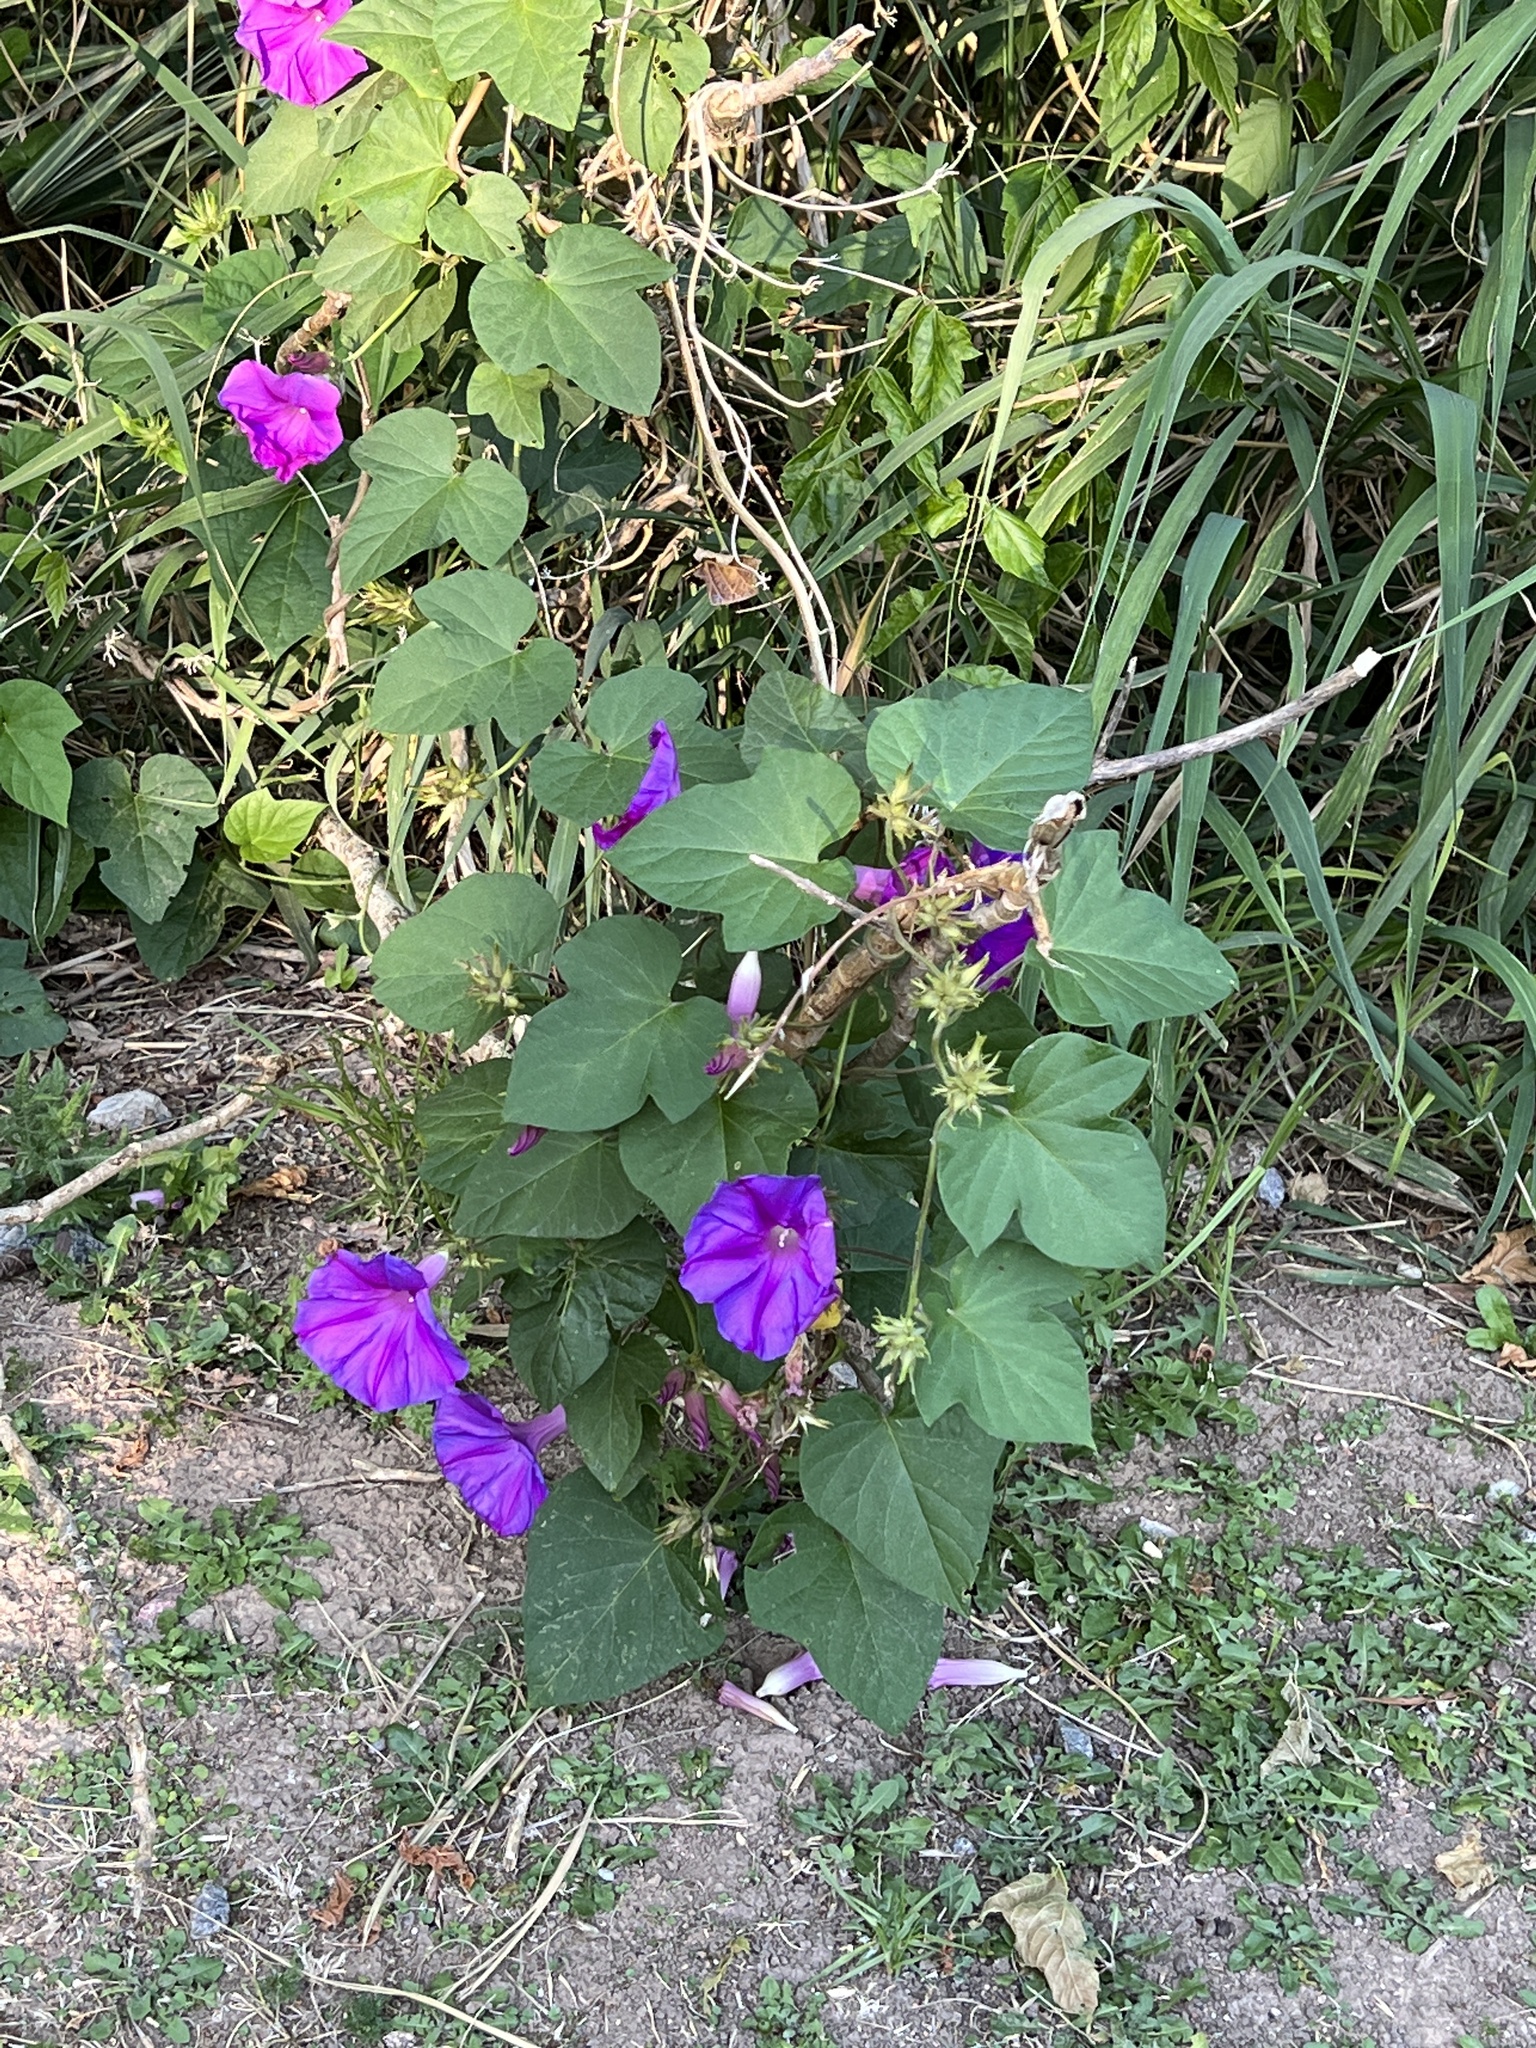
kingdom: Plantae
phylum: Tracheophyta
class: Magnoliopsida
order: Solanales
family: Convolvulaceae
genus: Ipomoea
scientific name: Ipomoea indica
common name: Blue dawnflower
